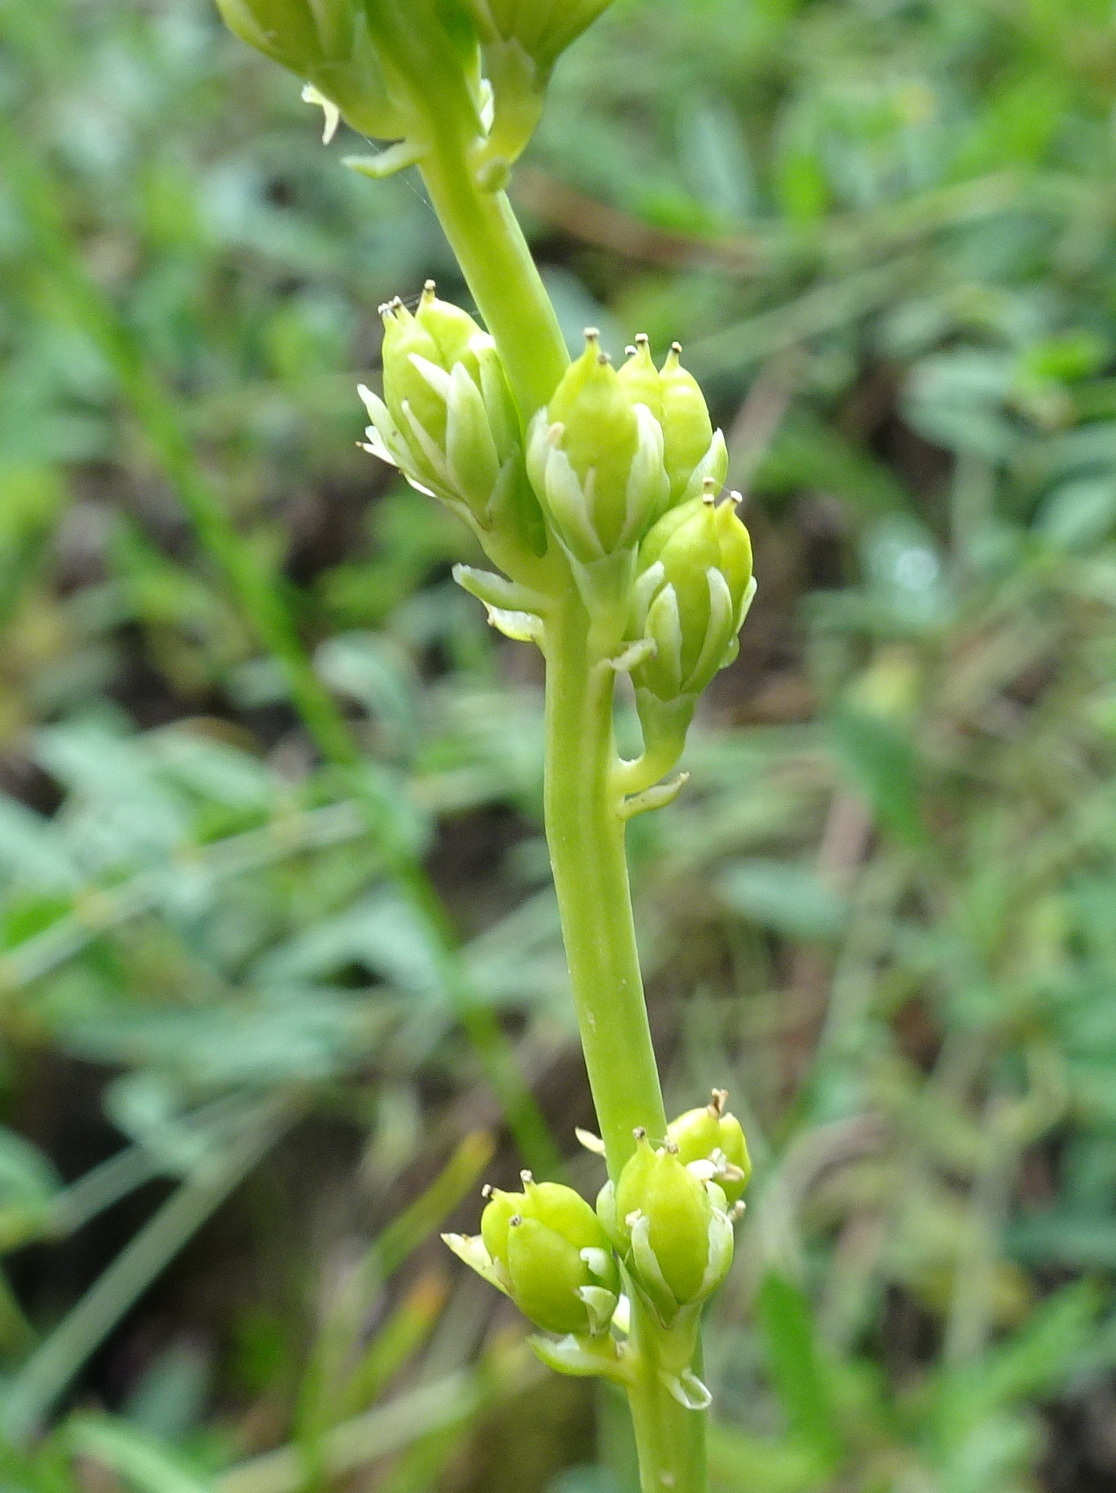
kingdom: Plantae
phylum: Tracheophyta
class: Liliopsida
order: Alismatales
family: Tofieldiaceae
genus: Tofieldia
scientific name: Tofieldia calyculata
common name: German-asphodel
